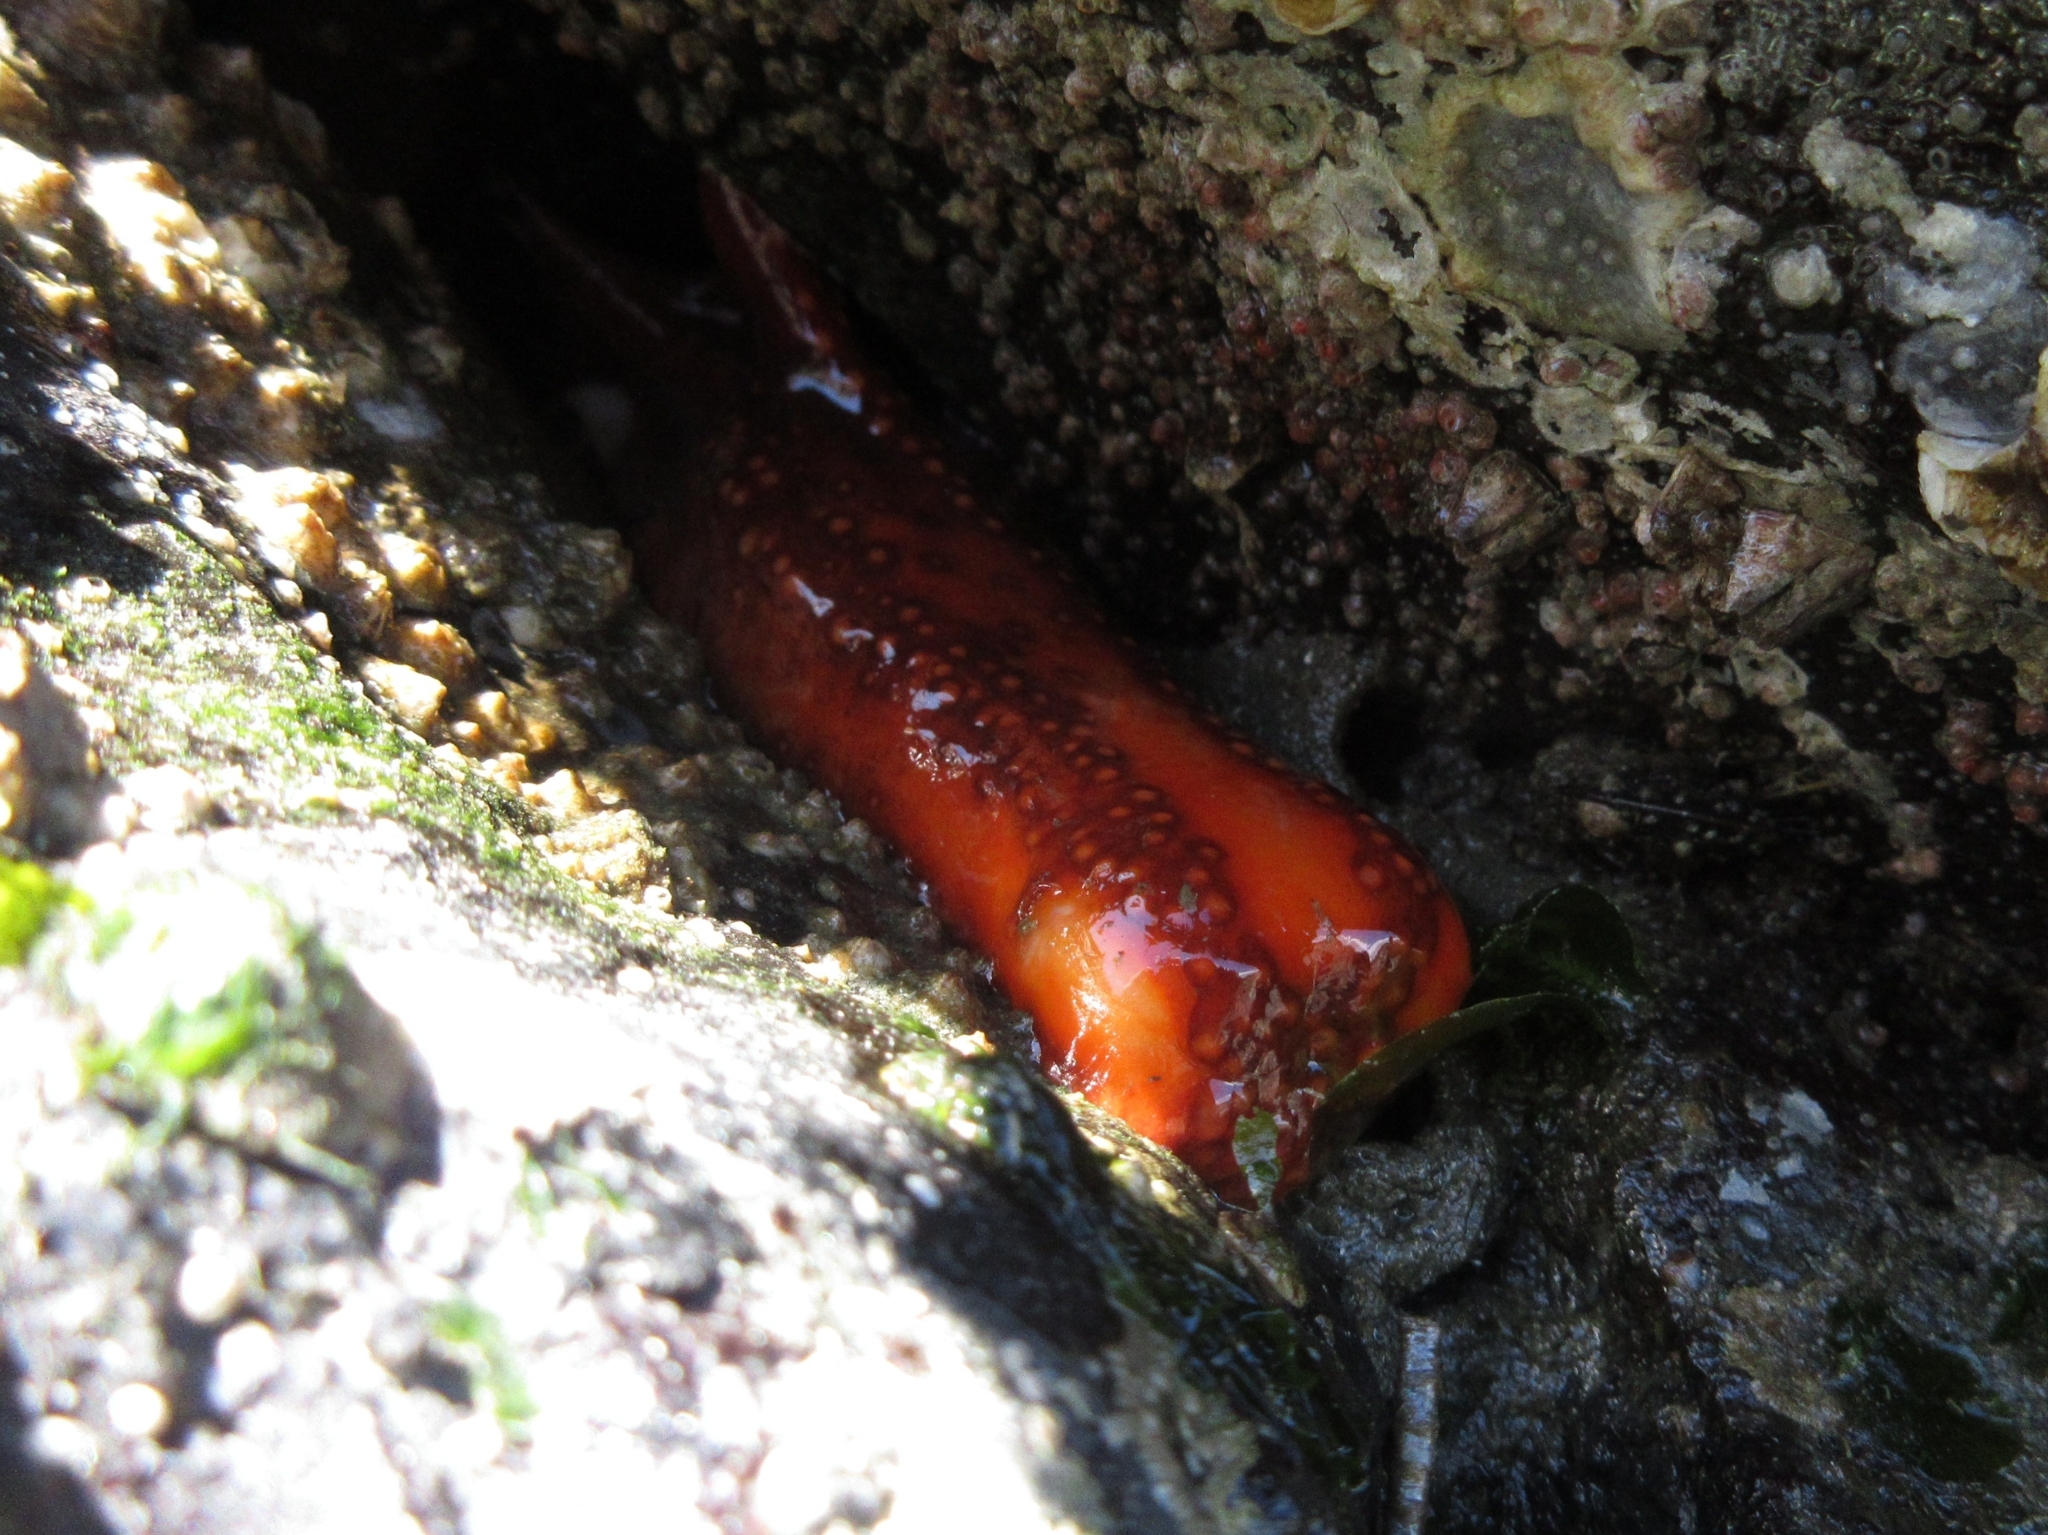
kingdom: Animalia
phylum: Echinodermata
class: Holothuroidea
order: Dendrochirotida
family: Cucumariidae
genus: Cucumaria
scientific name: Cucumaria miniata
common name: Orange sea cucumber
